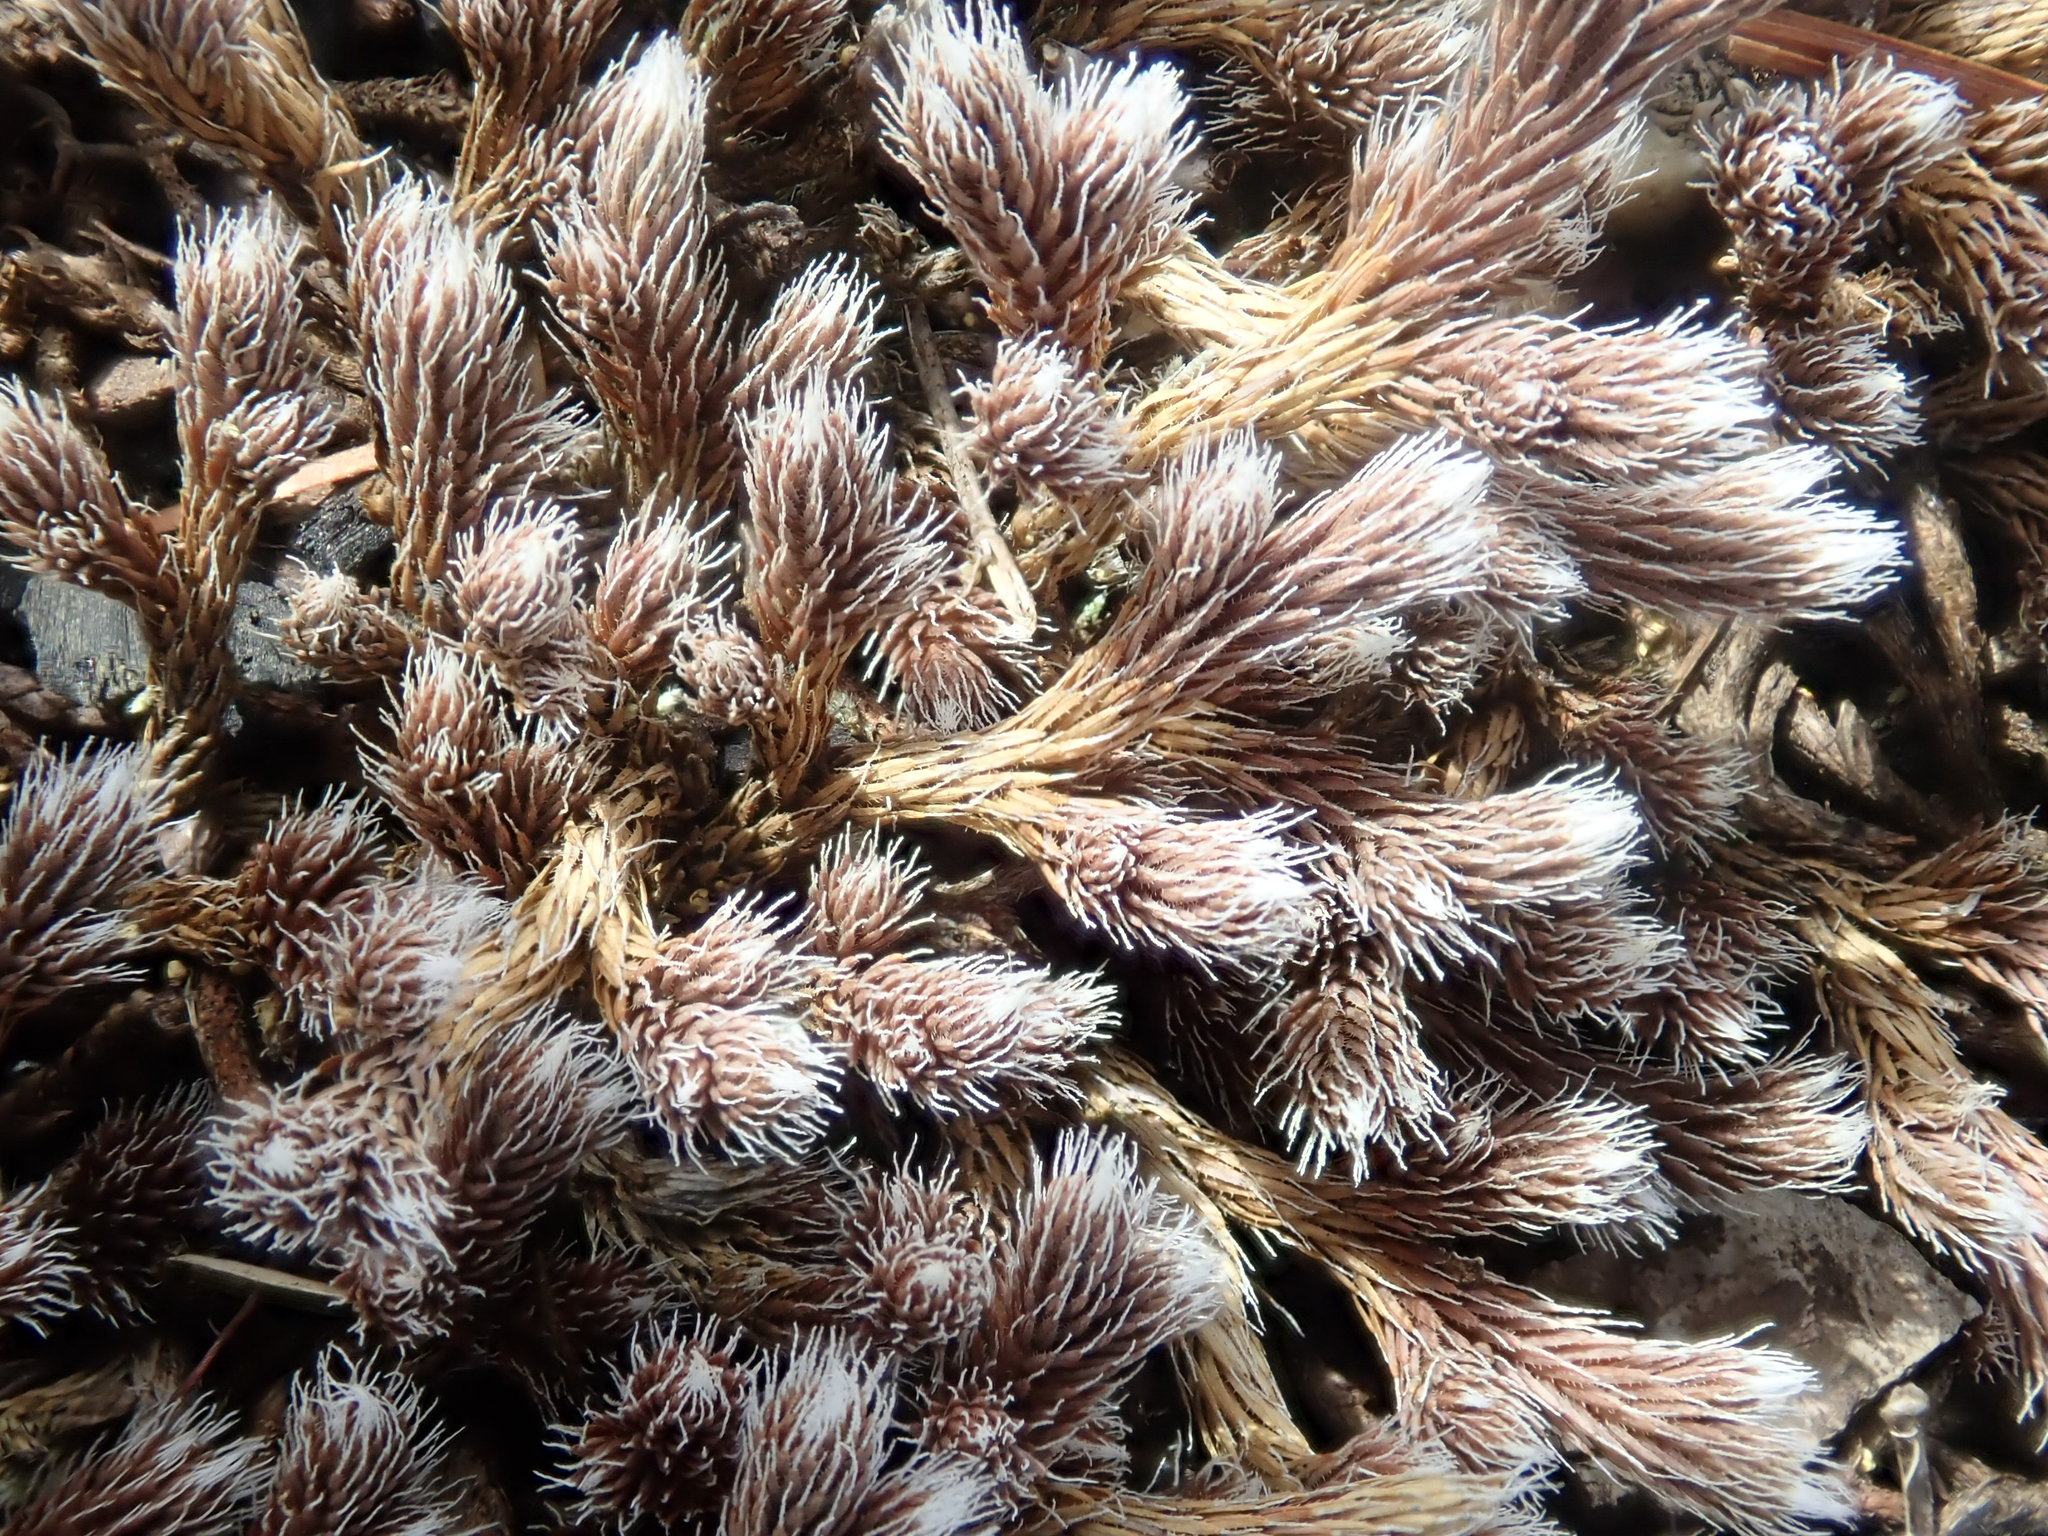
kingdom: Plantae
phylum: Tracheophyta
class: Lycopodiopsida
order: Selaginellales
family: Selaginellaceae
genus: Selaginella
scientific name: Selaginella rupestris
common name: Dwarf spikemoss
